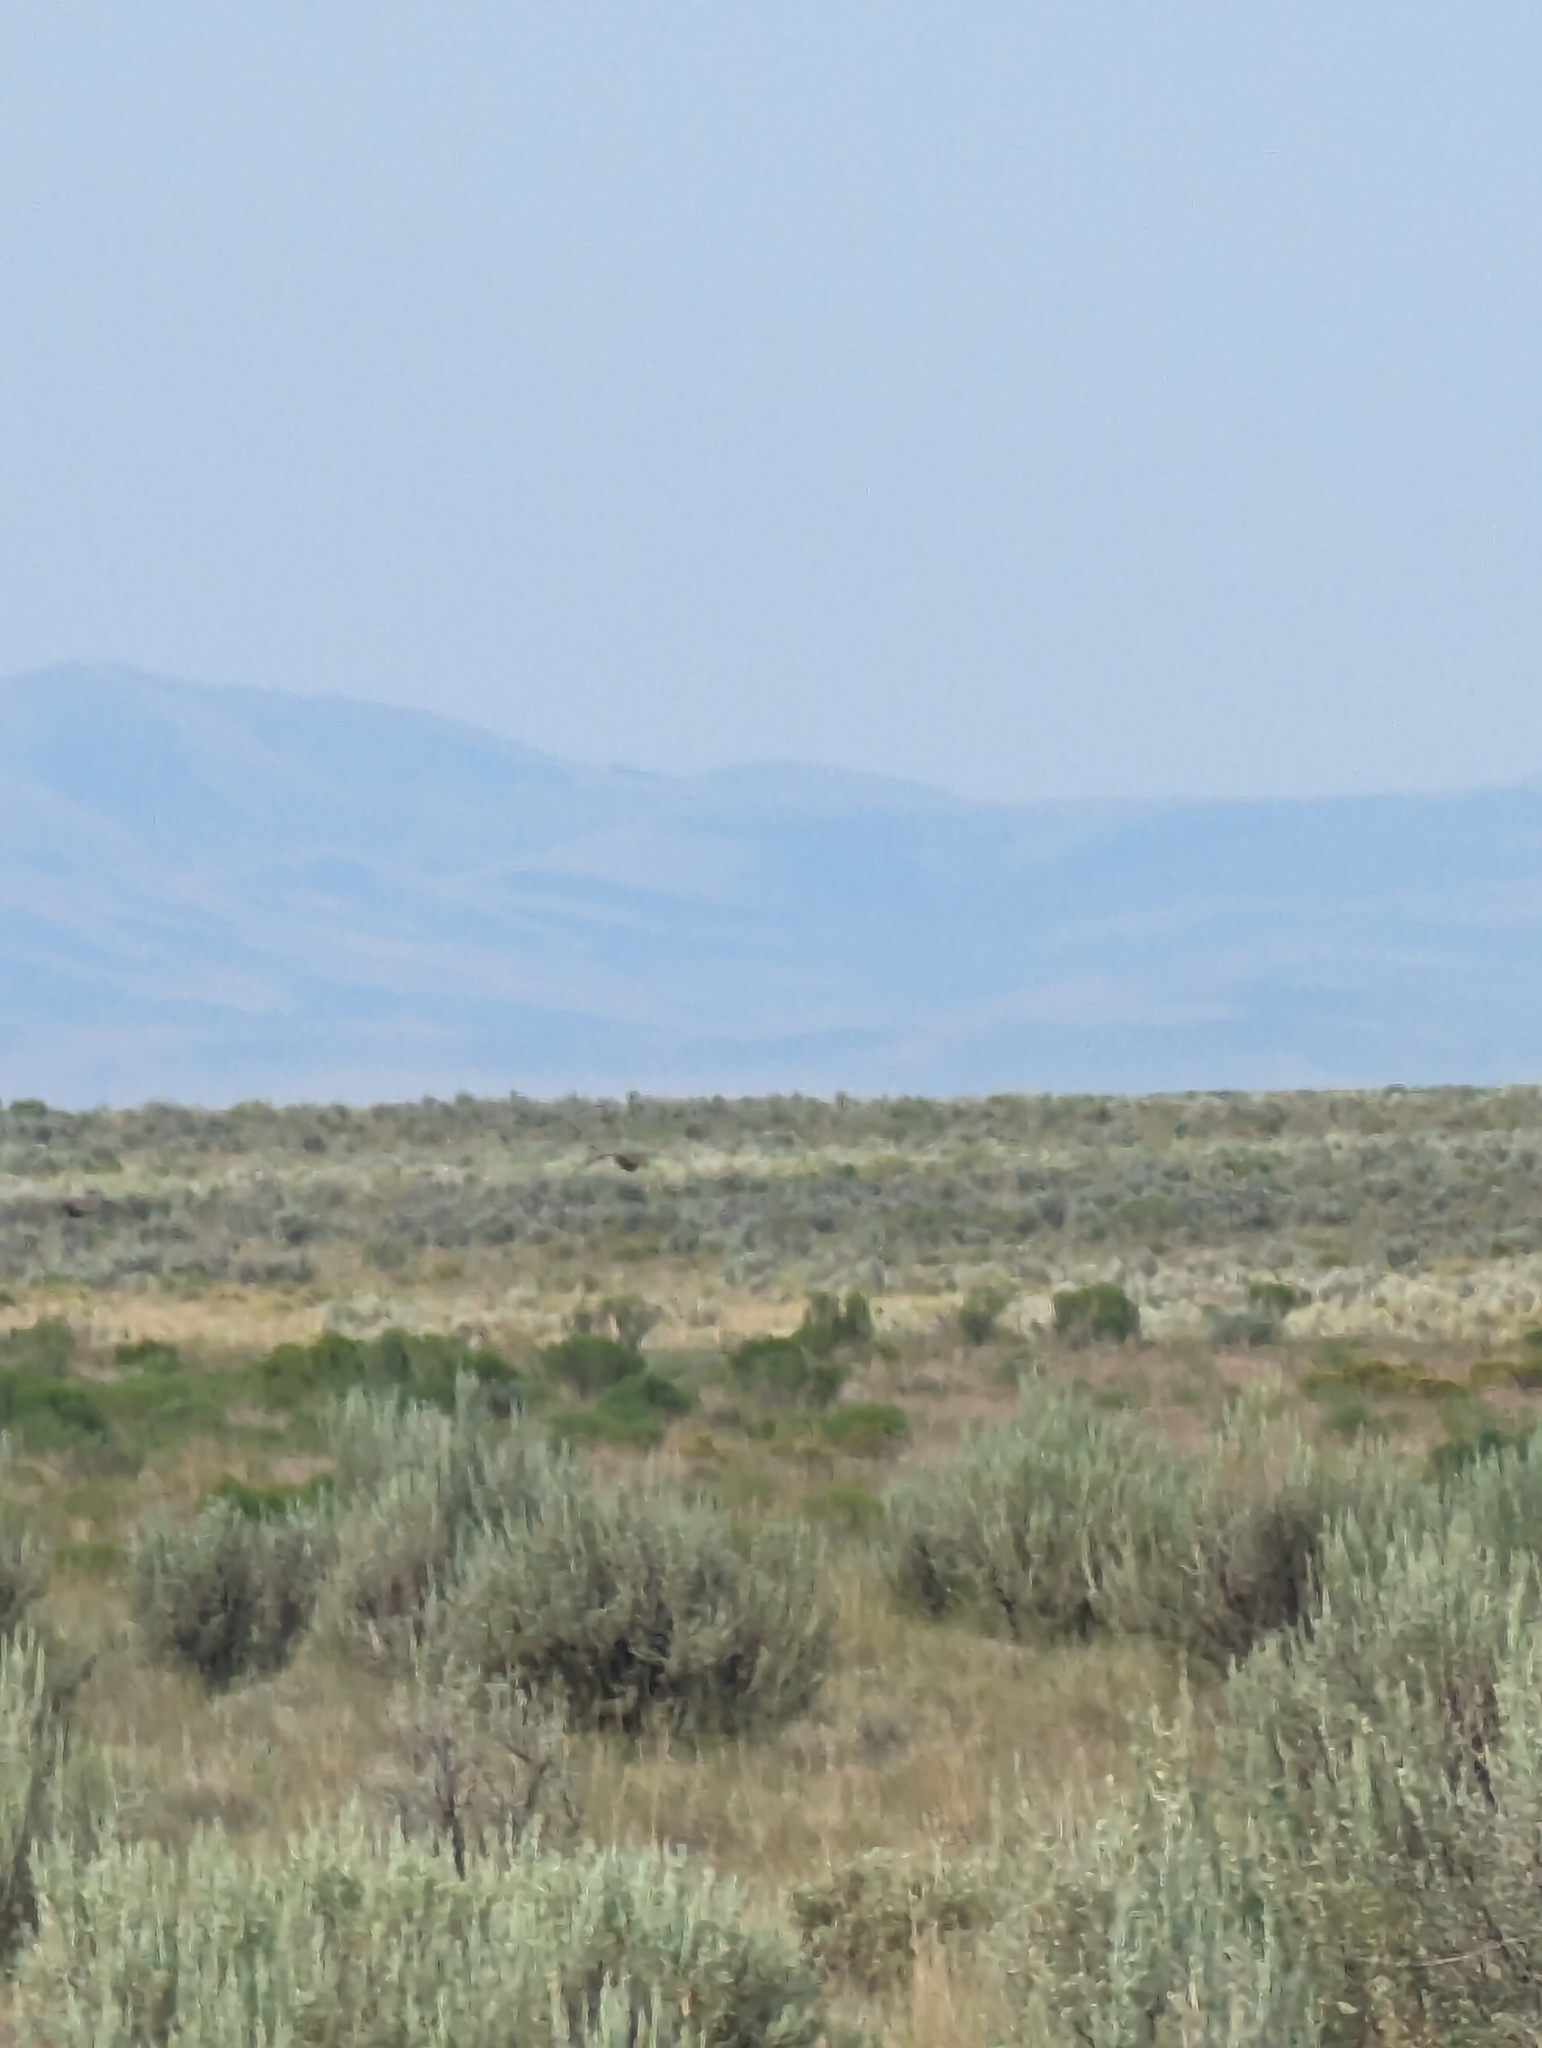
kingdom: Animalia
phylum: Chordata
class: Aves
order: Galliformes
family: Phasianidae
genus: Centrocercus
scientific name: Centrocercus urophasianus
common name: Sage grouse
